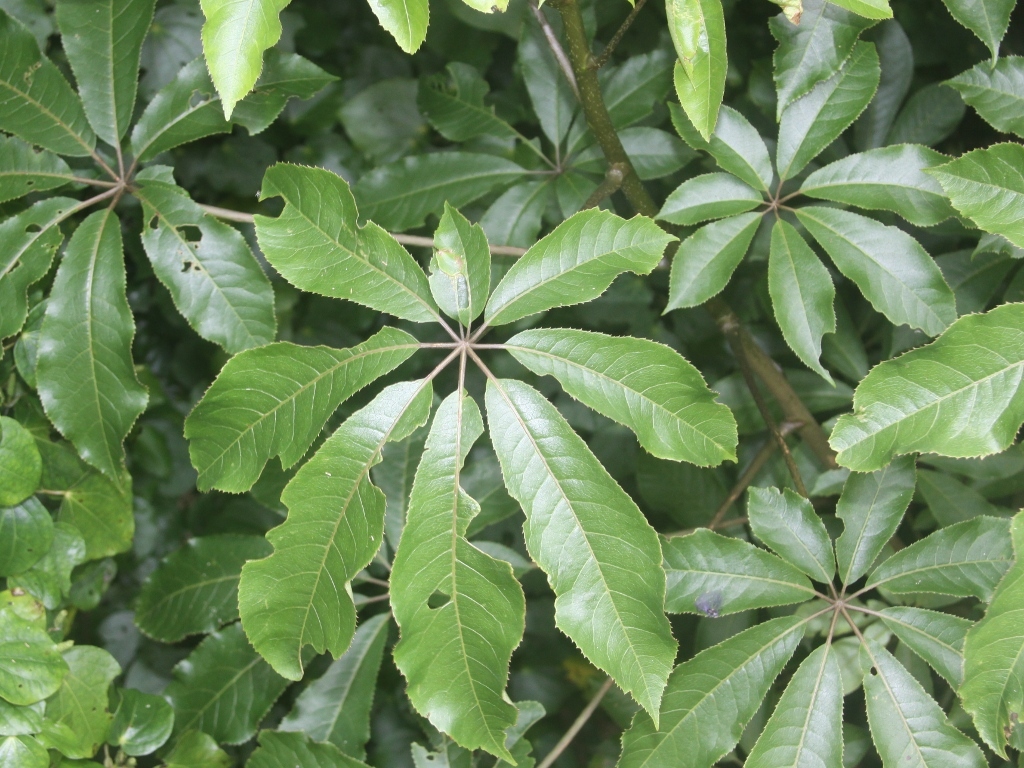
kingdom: Plantae
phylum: Tracheophyta
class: Magnoliopsida
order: Apiales
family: Araliaceae
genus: Schefflera
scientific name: Schefflera digitata
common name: Pate
